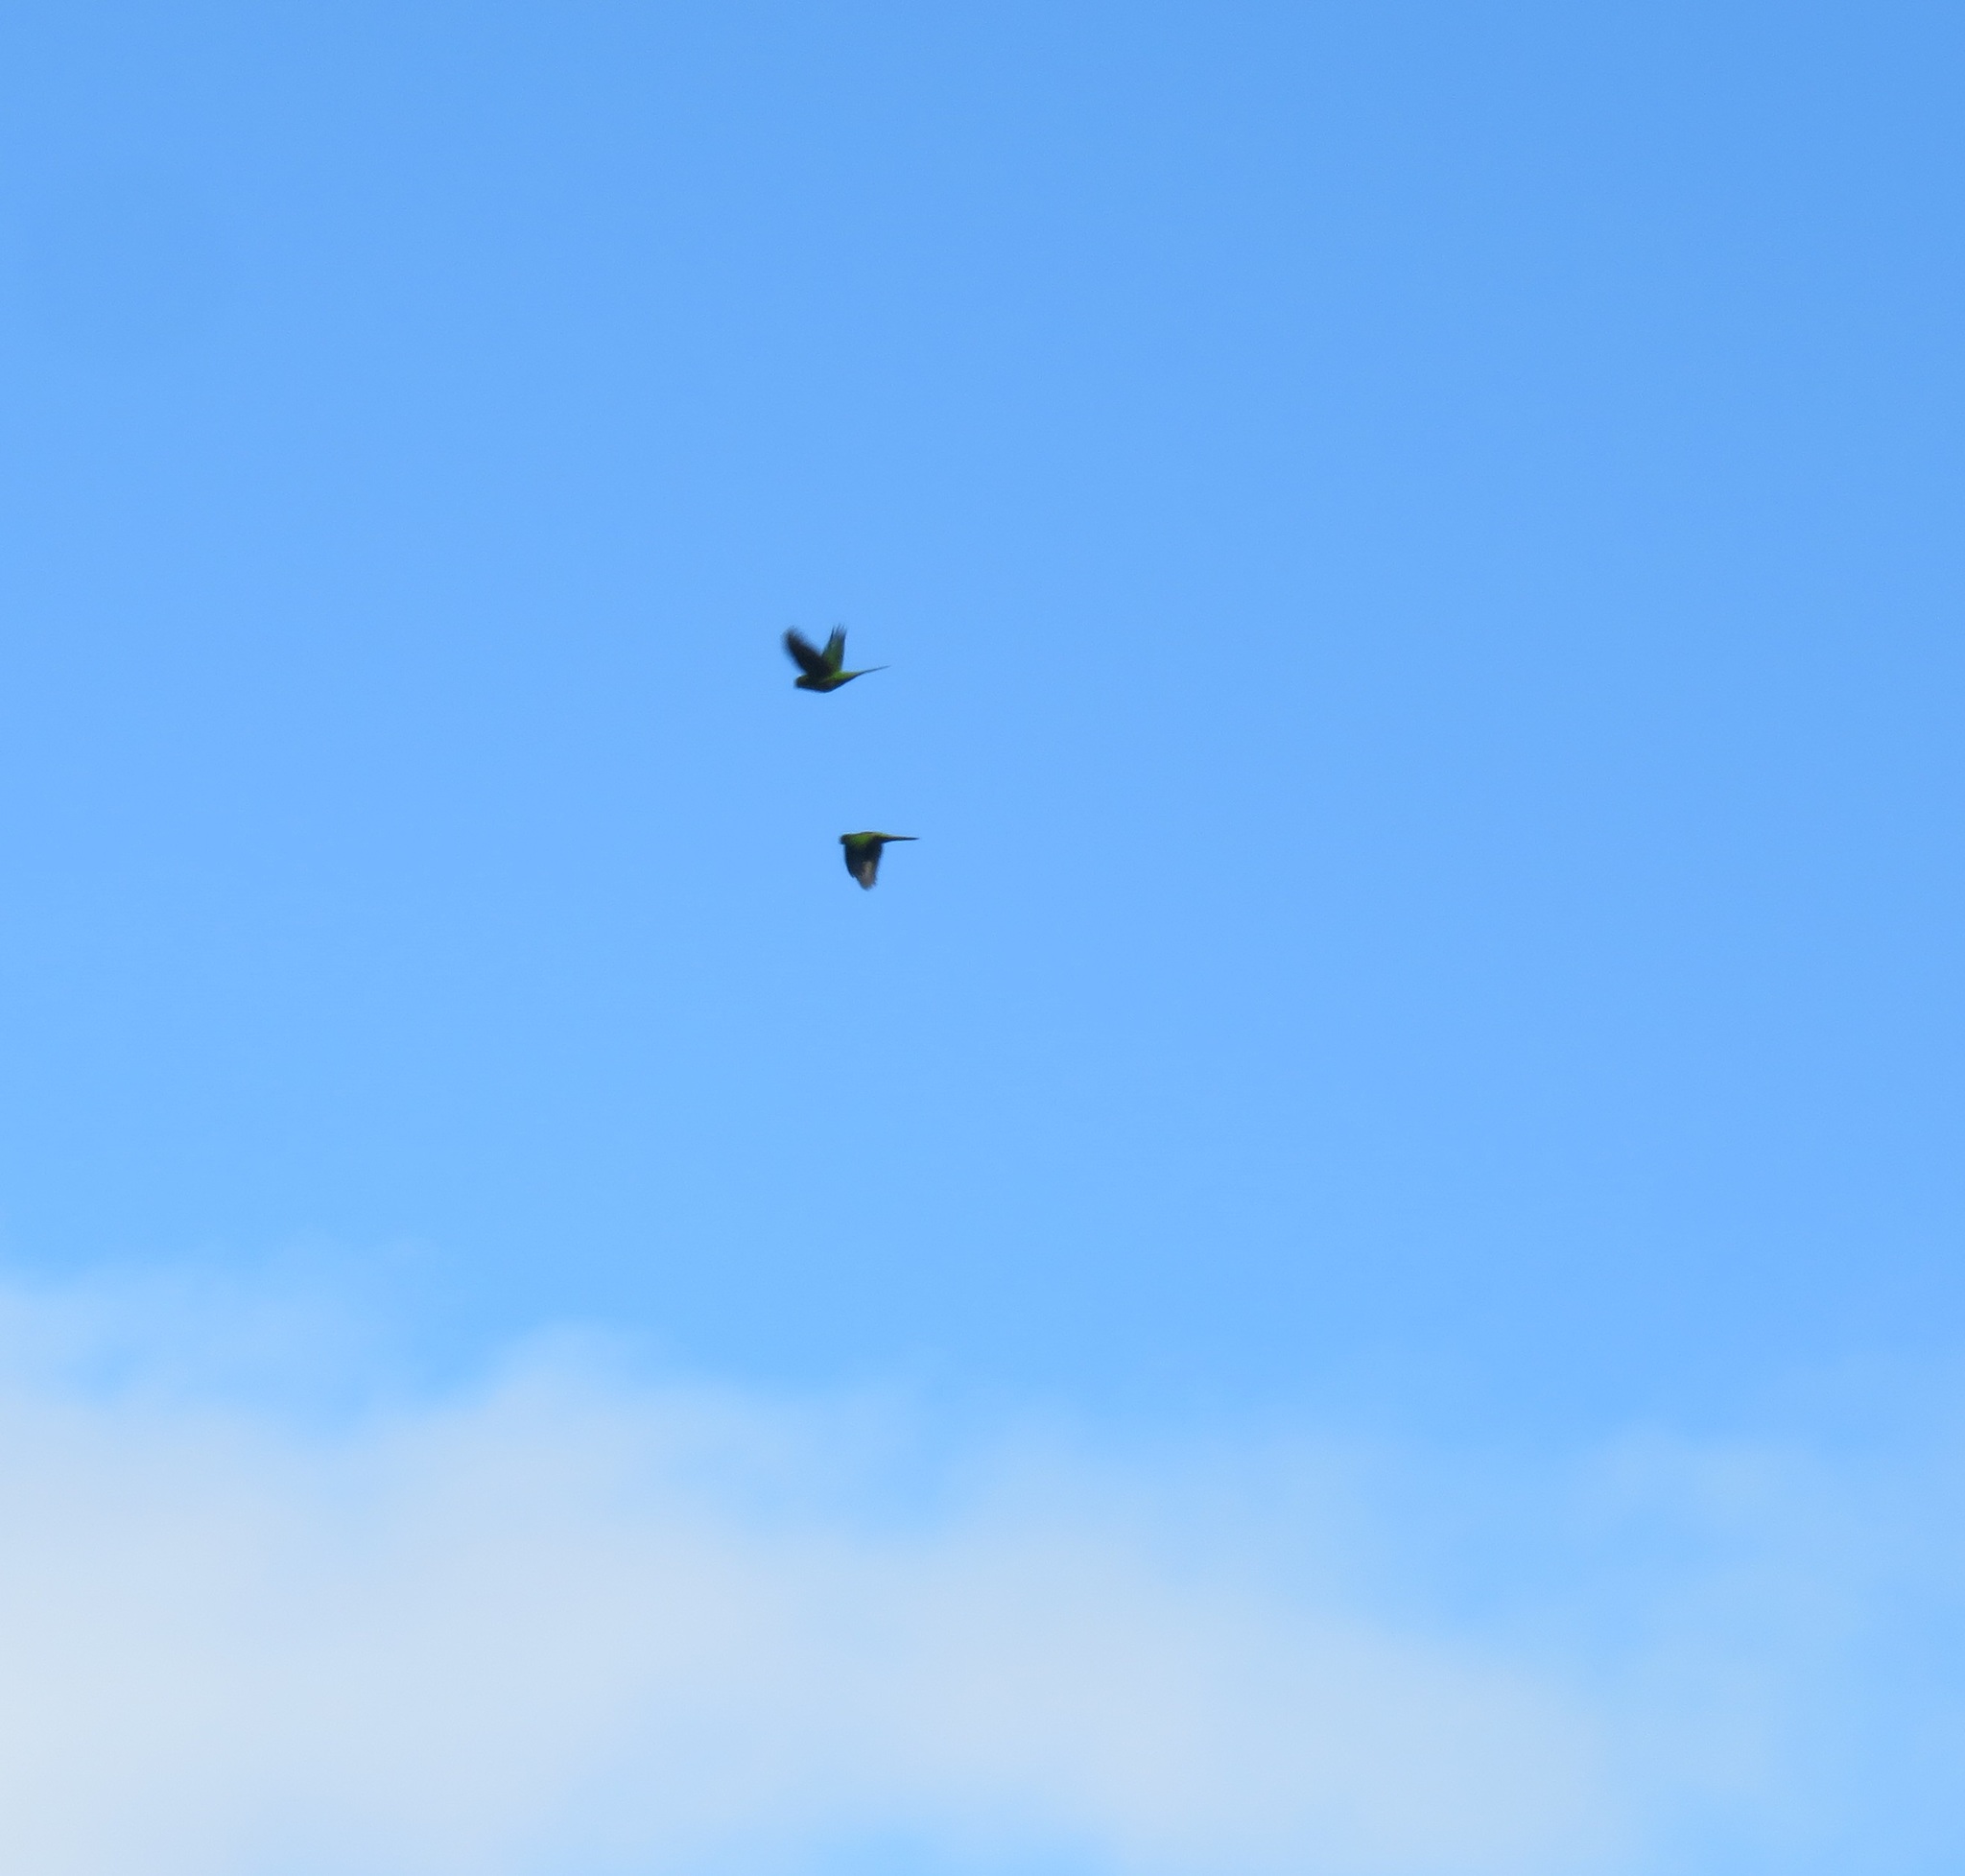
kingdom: Animalia
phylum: Chordata
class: Aves
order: Psittaciformes
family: Psittacidae
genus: Cyanoramphus
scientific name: Cyanoramphus
